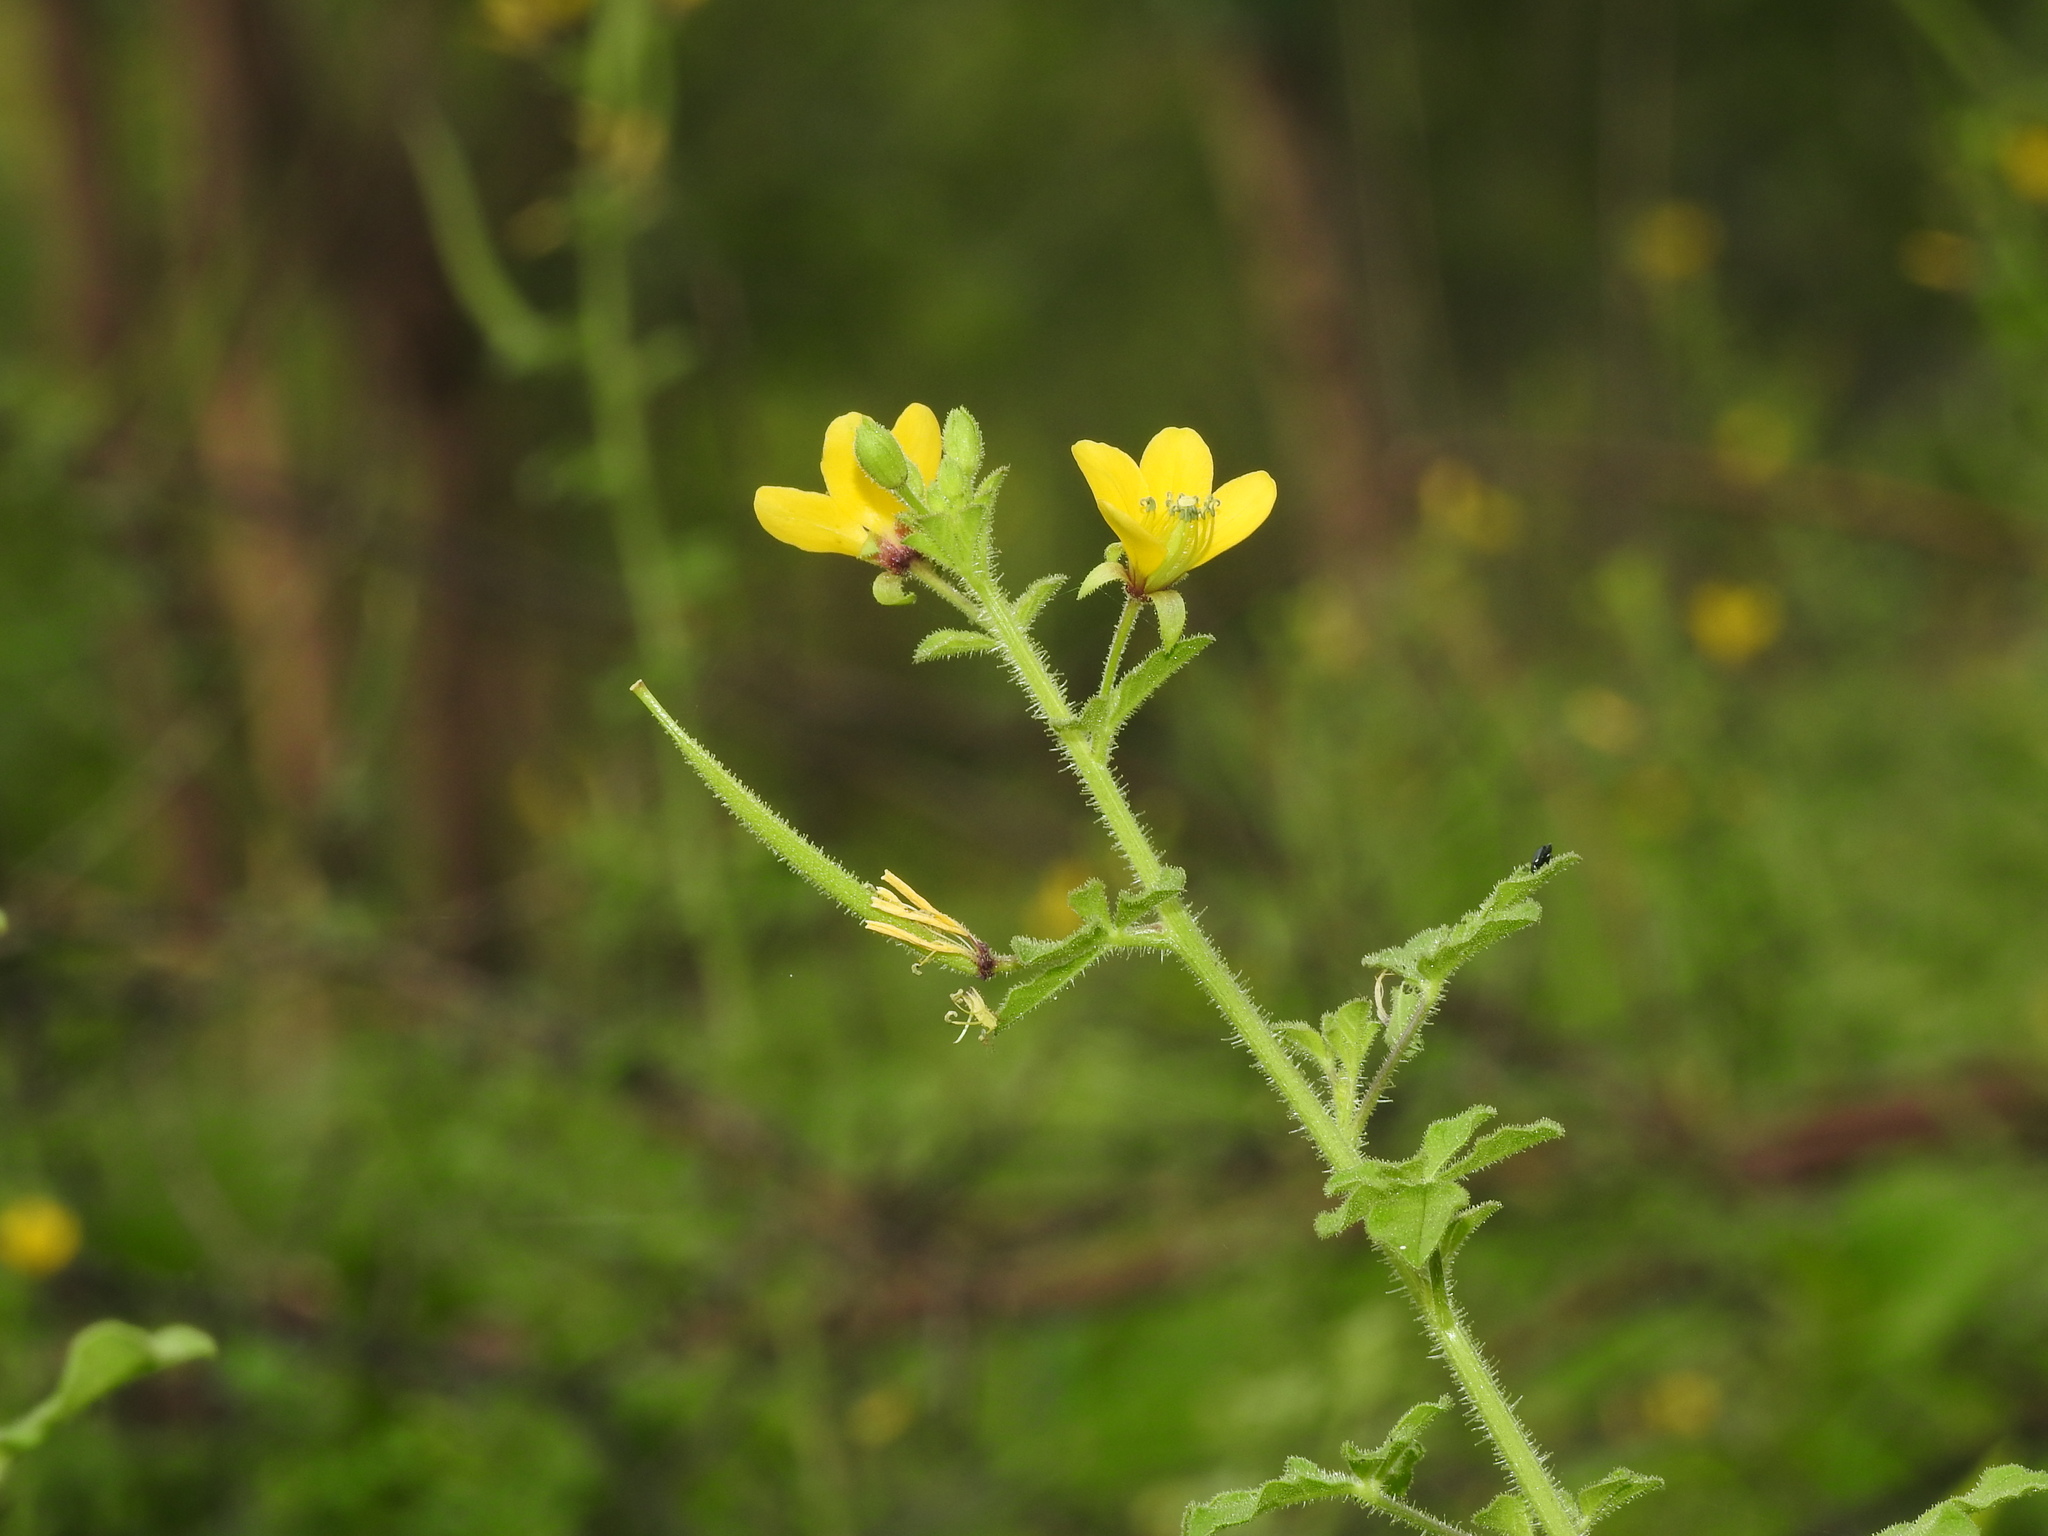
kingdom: Plantae
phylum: Tracheophyta
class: Magnoliopsida
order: Brassicales
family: Cleomaceae
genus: Arivela
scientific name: Arivela viscosa
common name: Asian spiderflower
